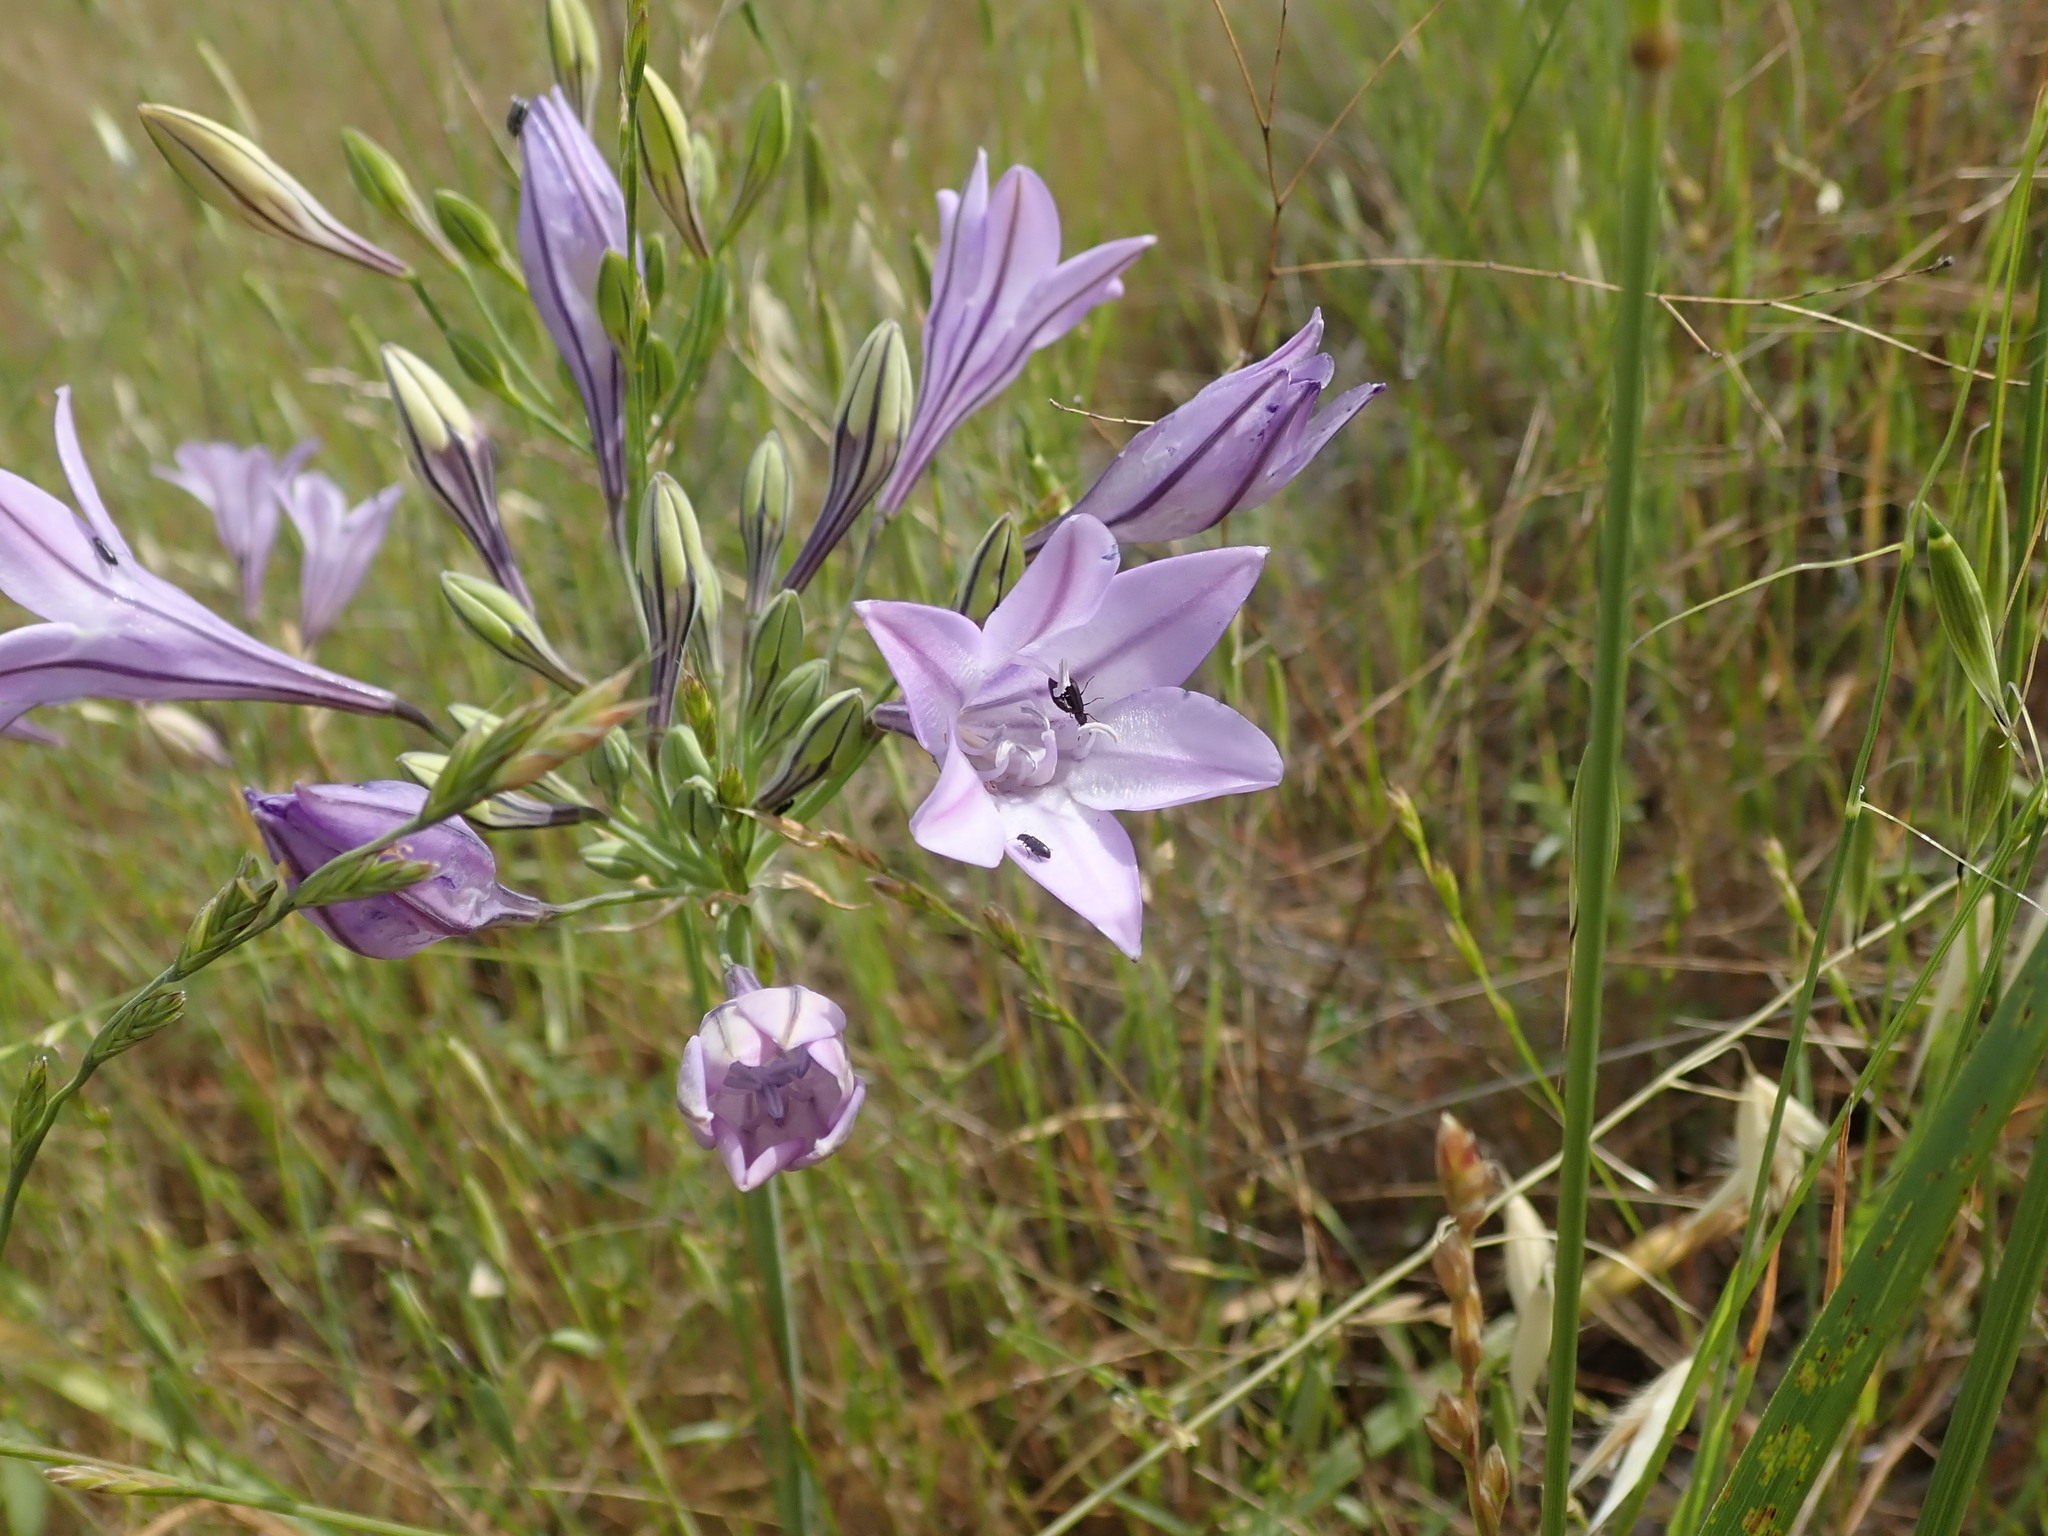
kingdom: Plantae
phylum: Tracheophyta
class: Liliopsida
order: Asparagales
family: Asparagaceae
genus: Triteleia
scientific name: Triteleia laxa
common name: Triplet-lily
